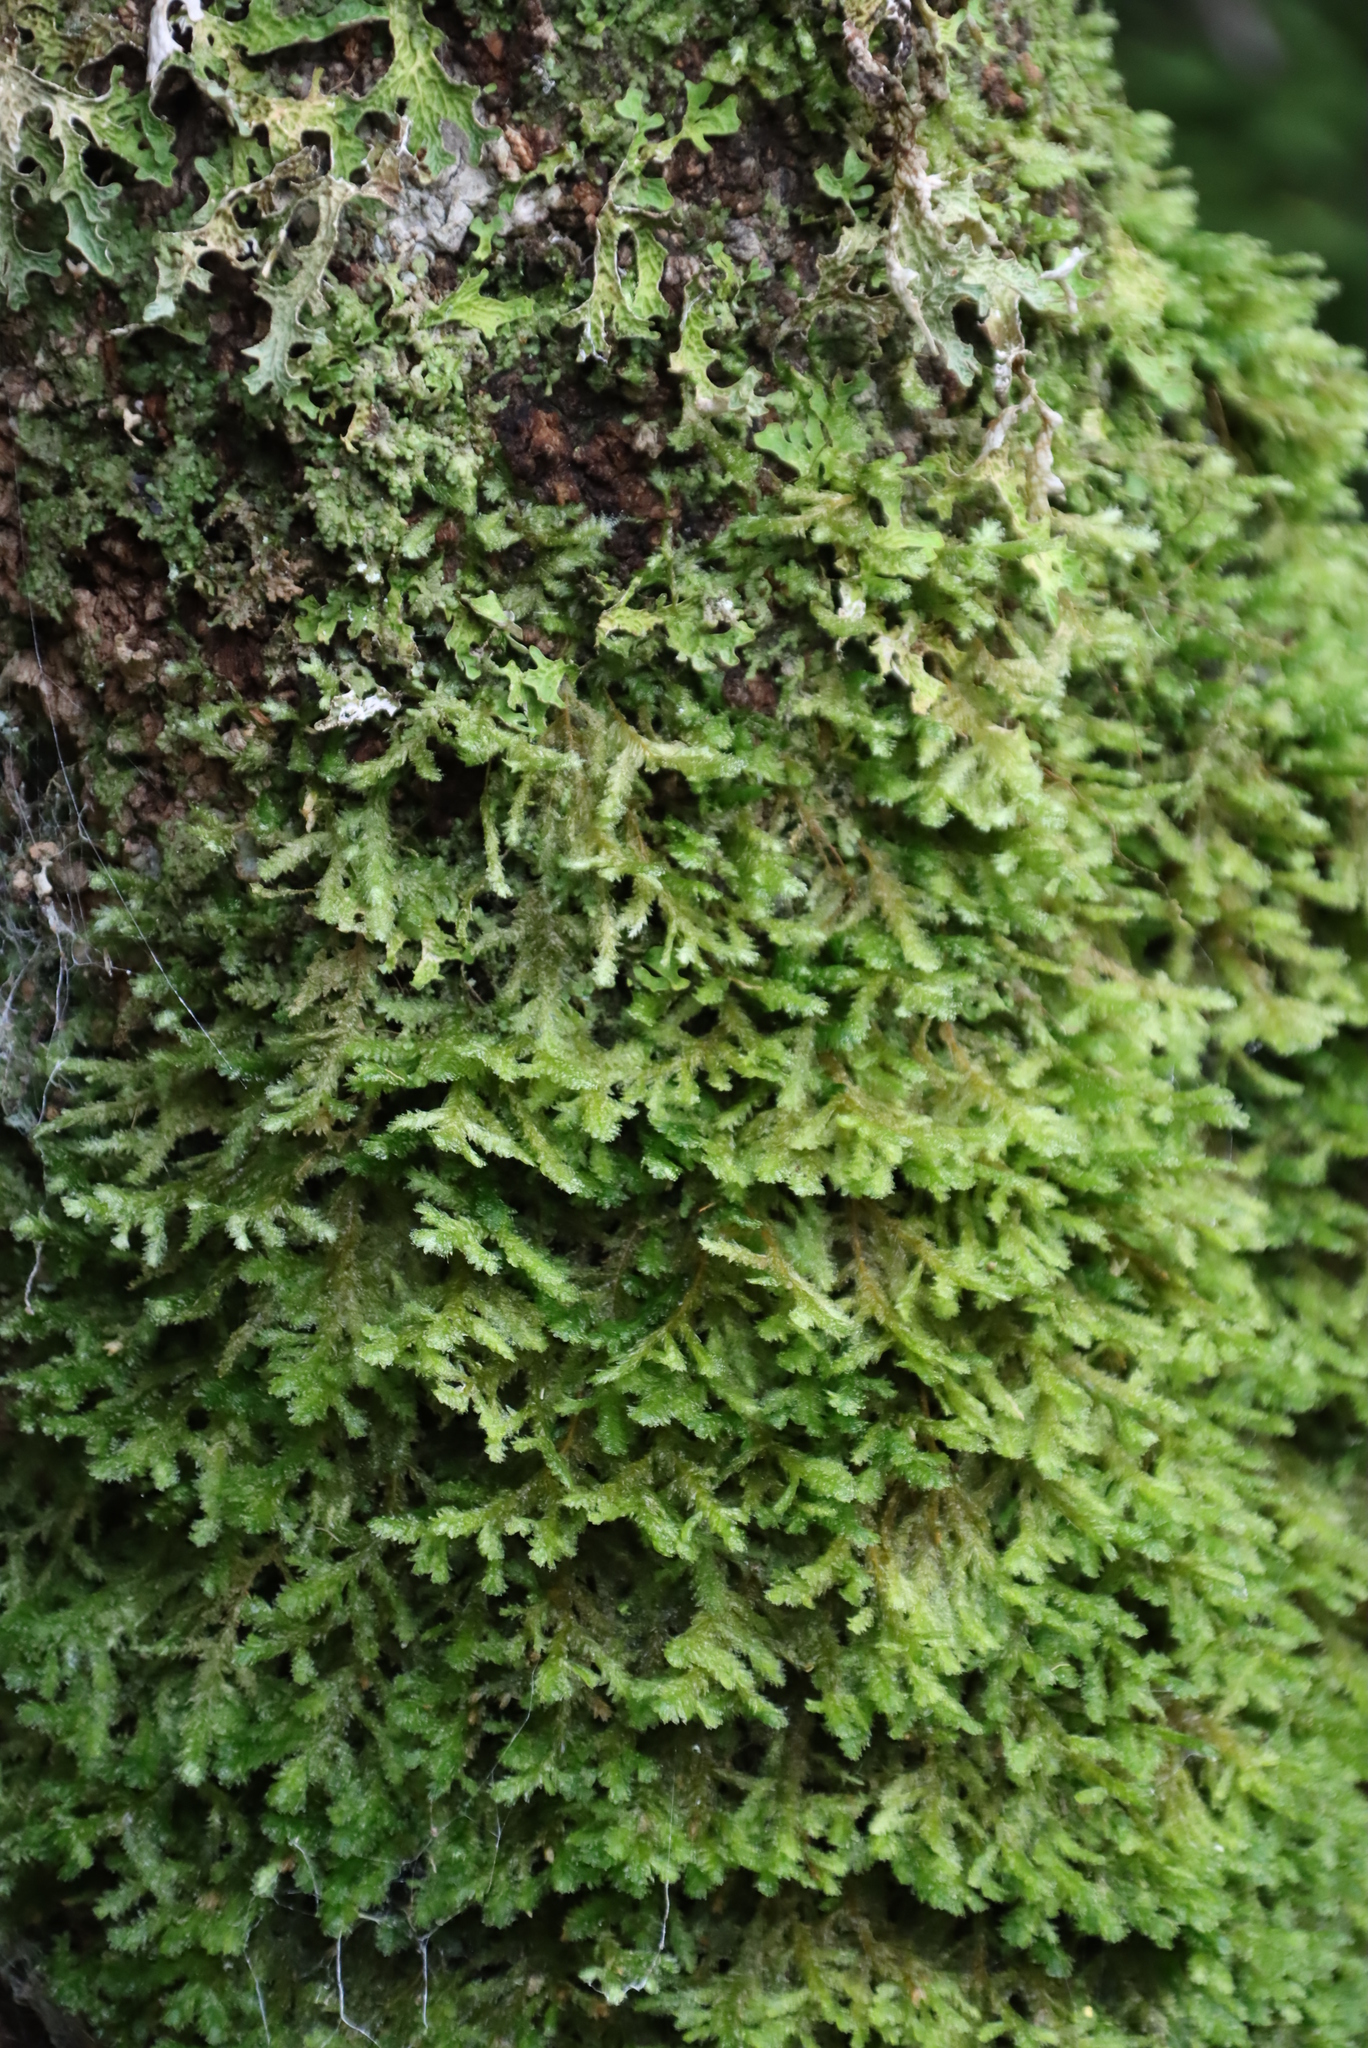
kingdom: Plantae
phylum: Bryophyta
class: Bryopsida
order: Hypnales
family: Neckeraceae
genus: Alleniella
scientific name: Alleniella ehrenbergii
